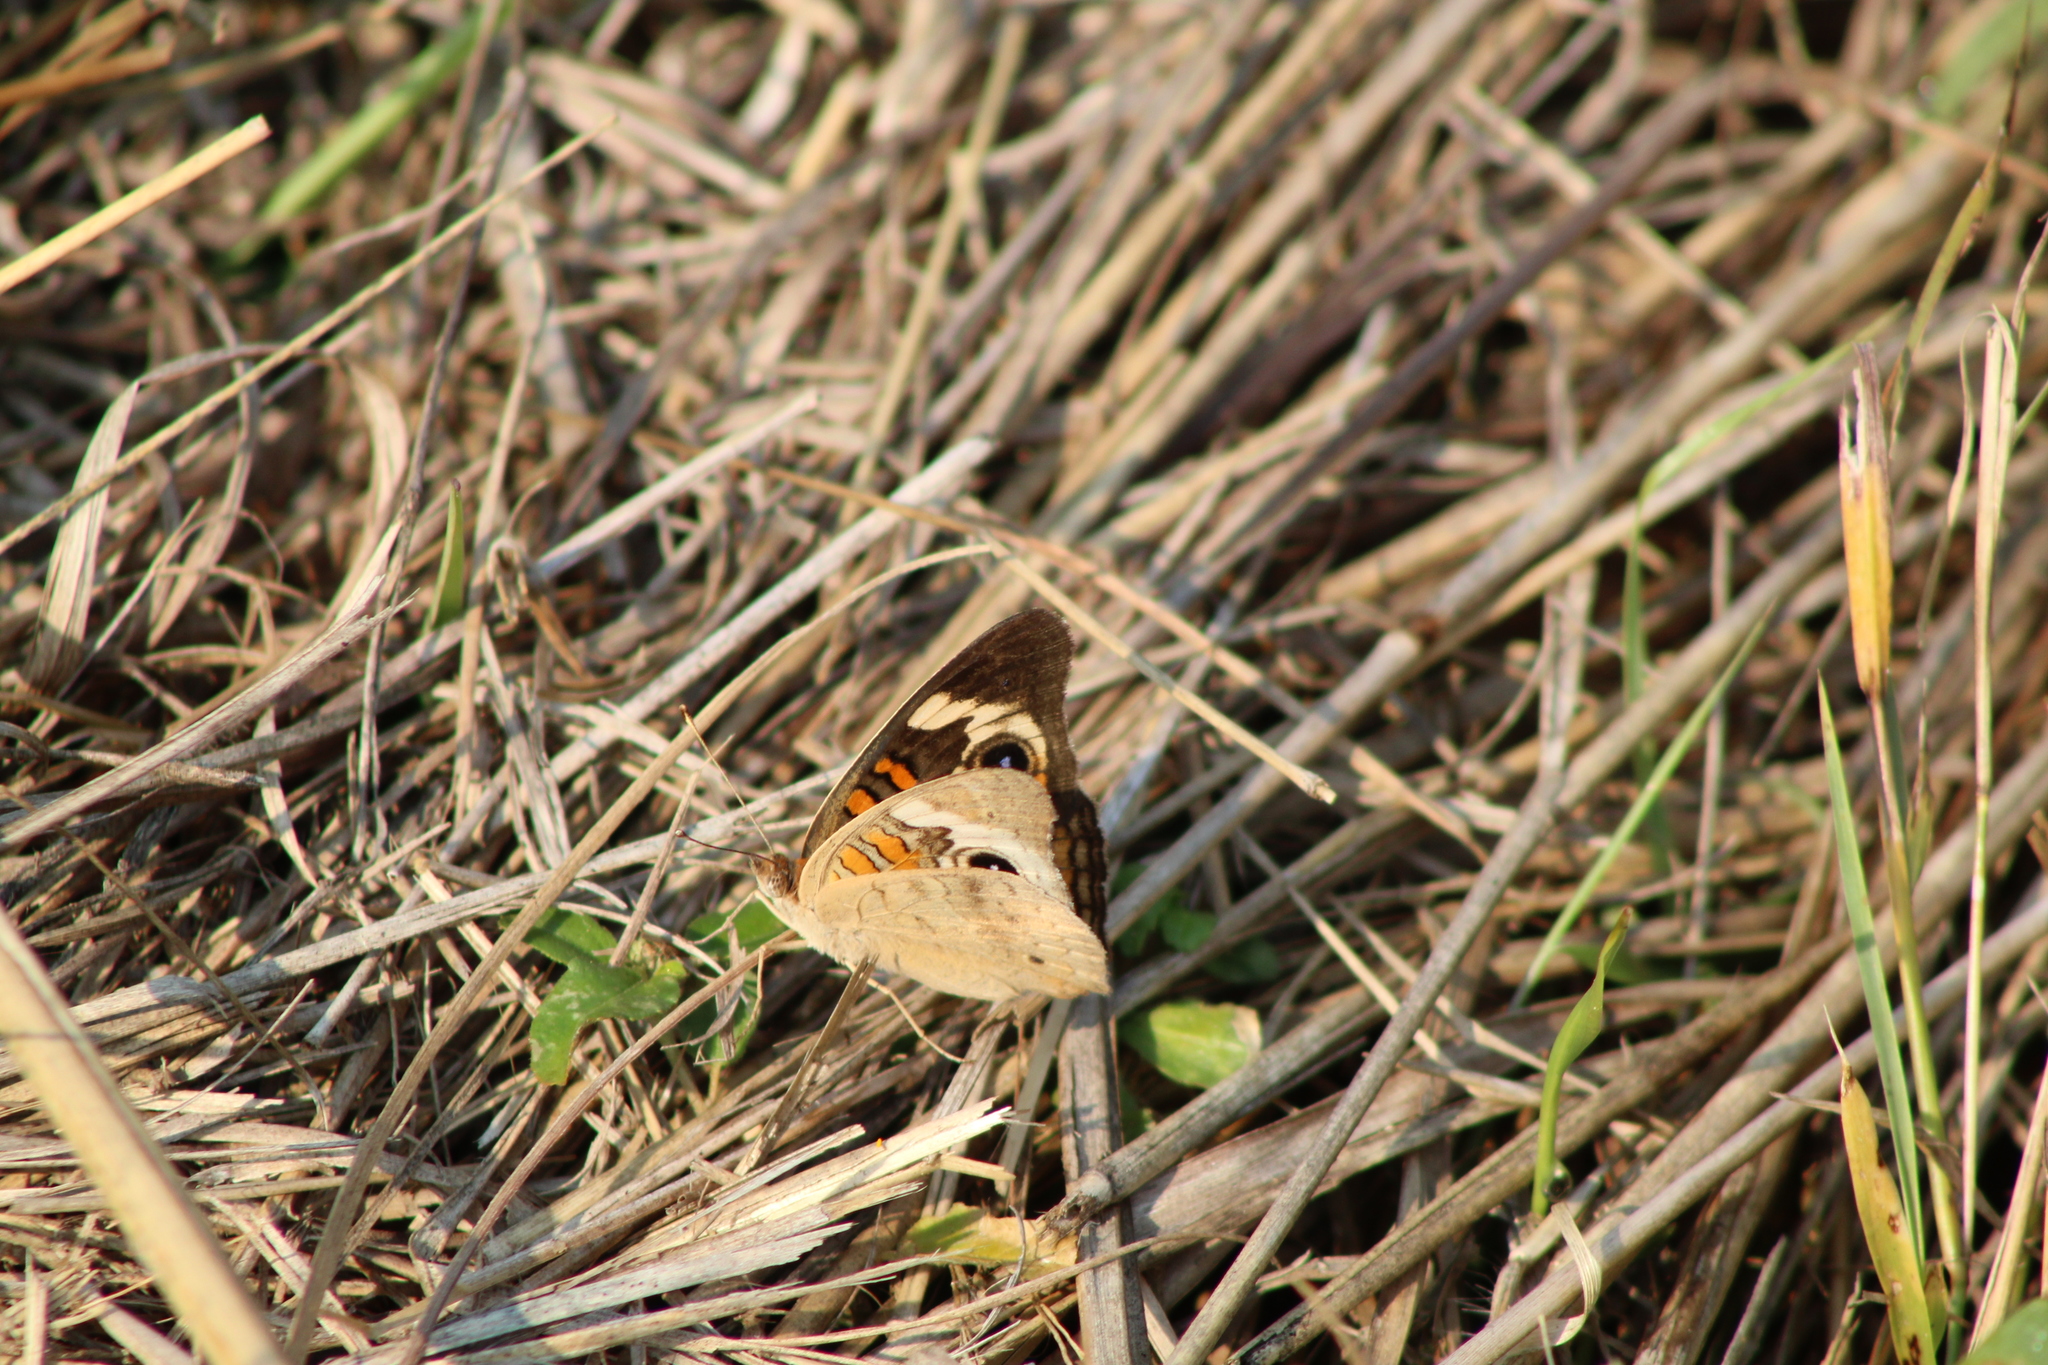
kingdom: Animalia
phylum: Arthropoda
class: Insecta
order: Lepidoptera
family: Nymphalidae
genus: Junonia
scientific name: Junonia coenia
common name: Common buckeye
